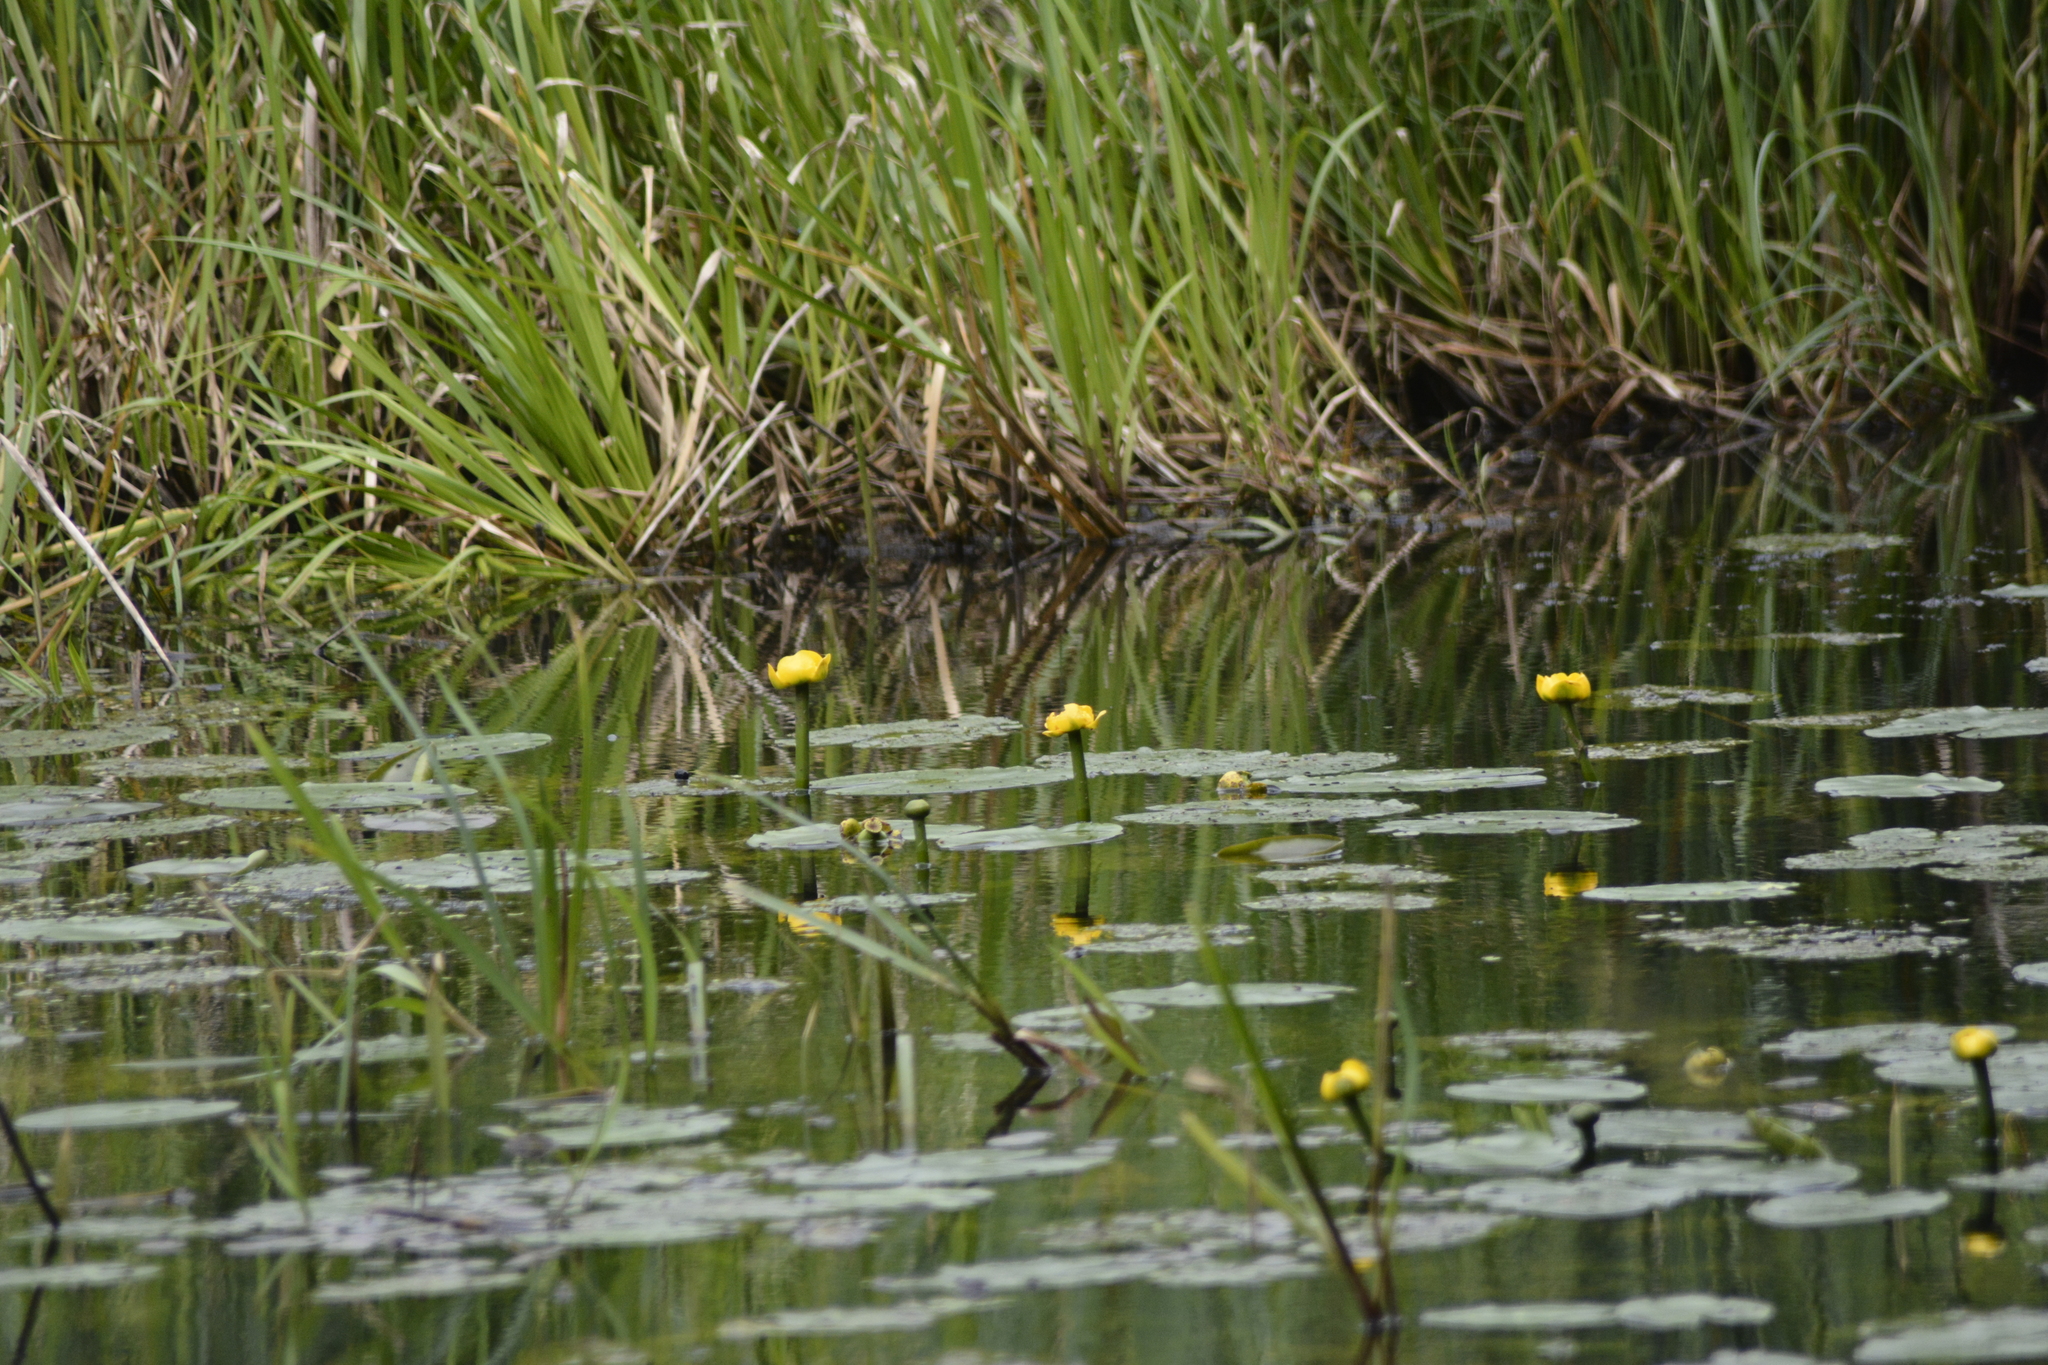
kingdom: Plantae
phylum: Tracheophyta
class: Magnoliopsida
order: Nymphaeales
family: Nymphaeaceae
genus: Nuphar
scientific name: Nuphar lutea
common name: Yellow water-lily
